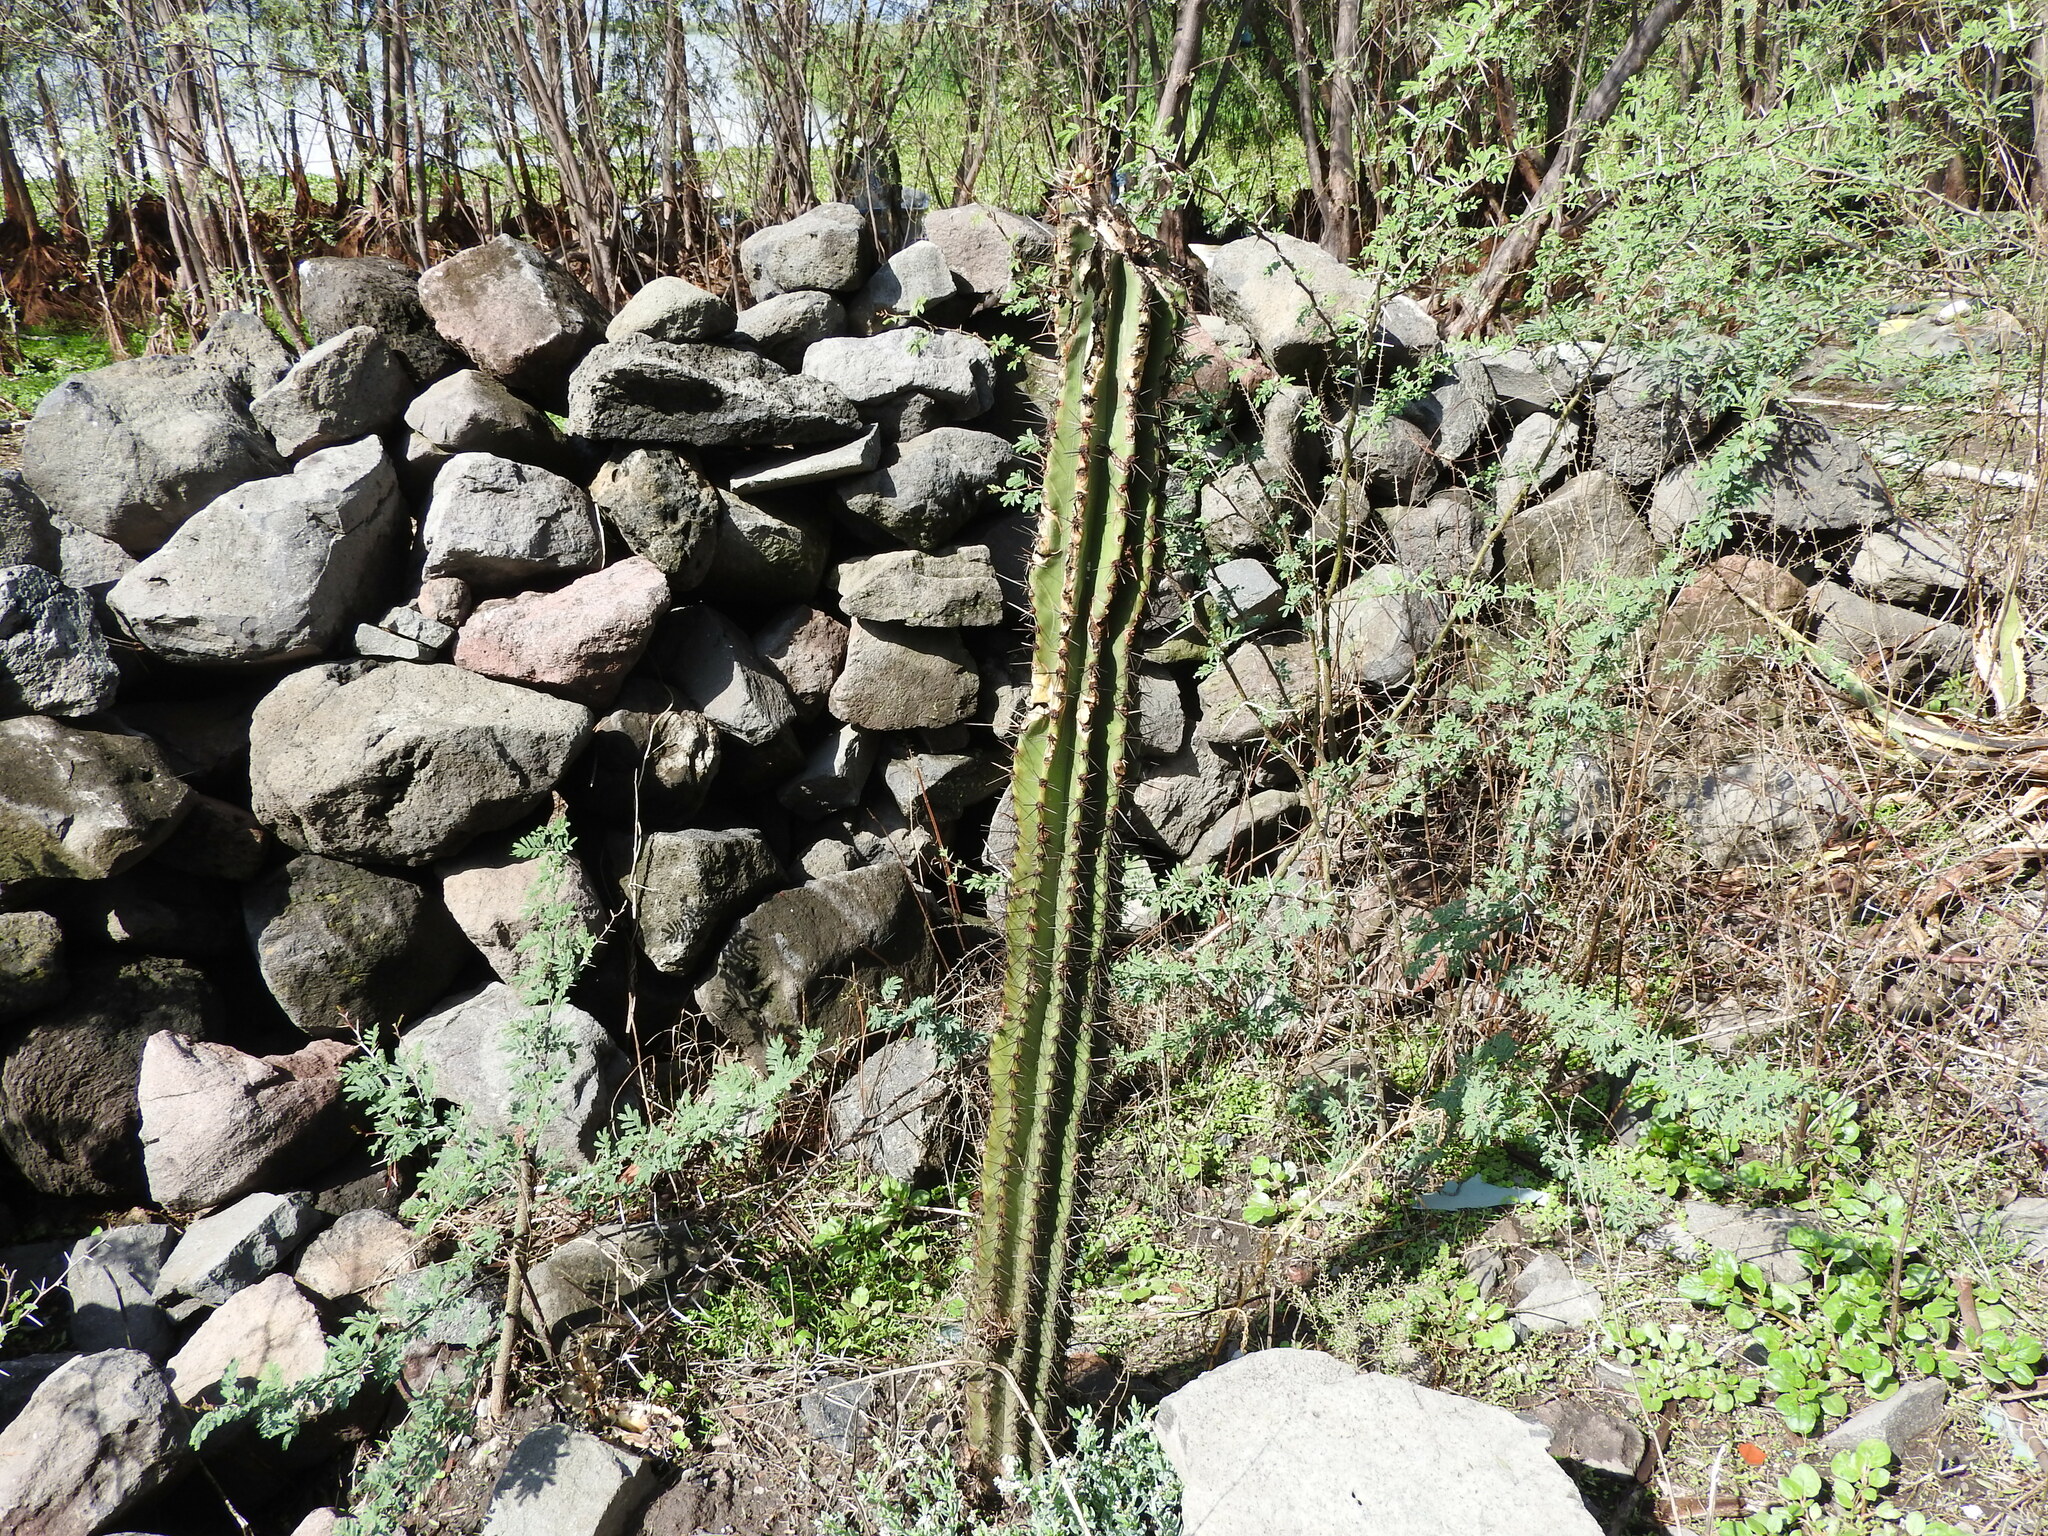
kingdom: Plantae
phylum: Tracheophyta
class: Magnoliopsida
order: Caryophyllales
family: Cactaceae
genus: Stenocereus
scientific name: Stenocereus queretaroensis
